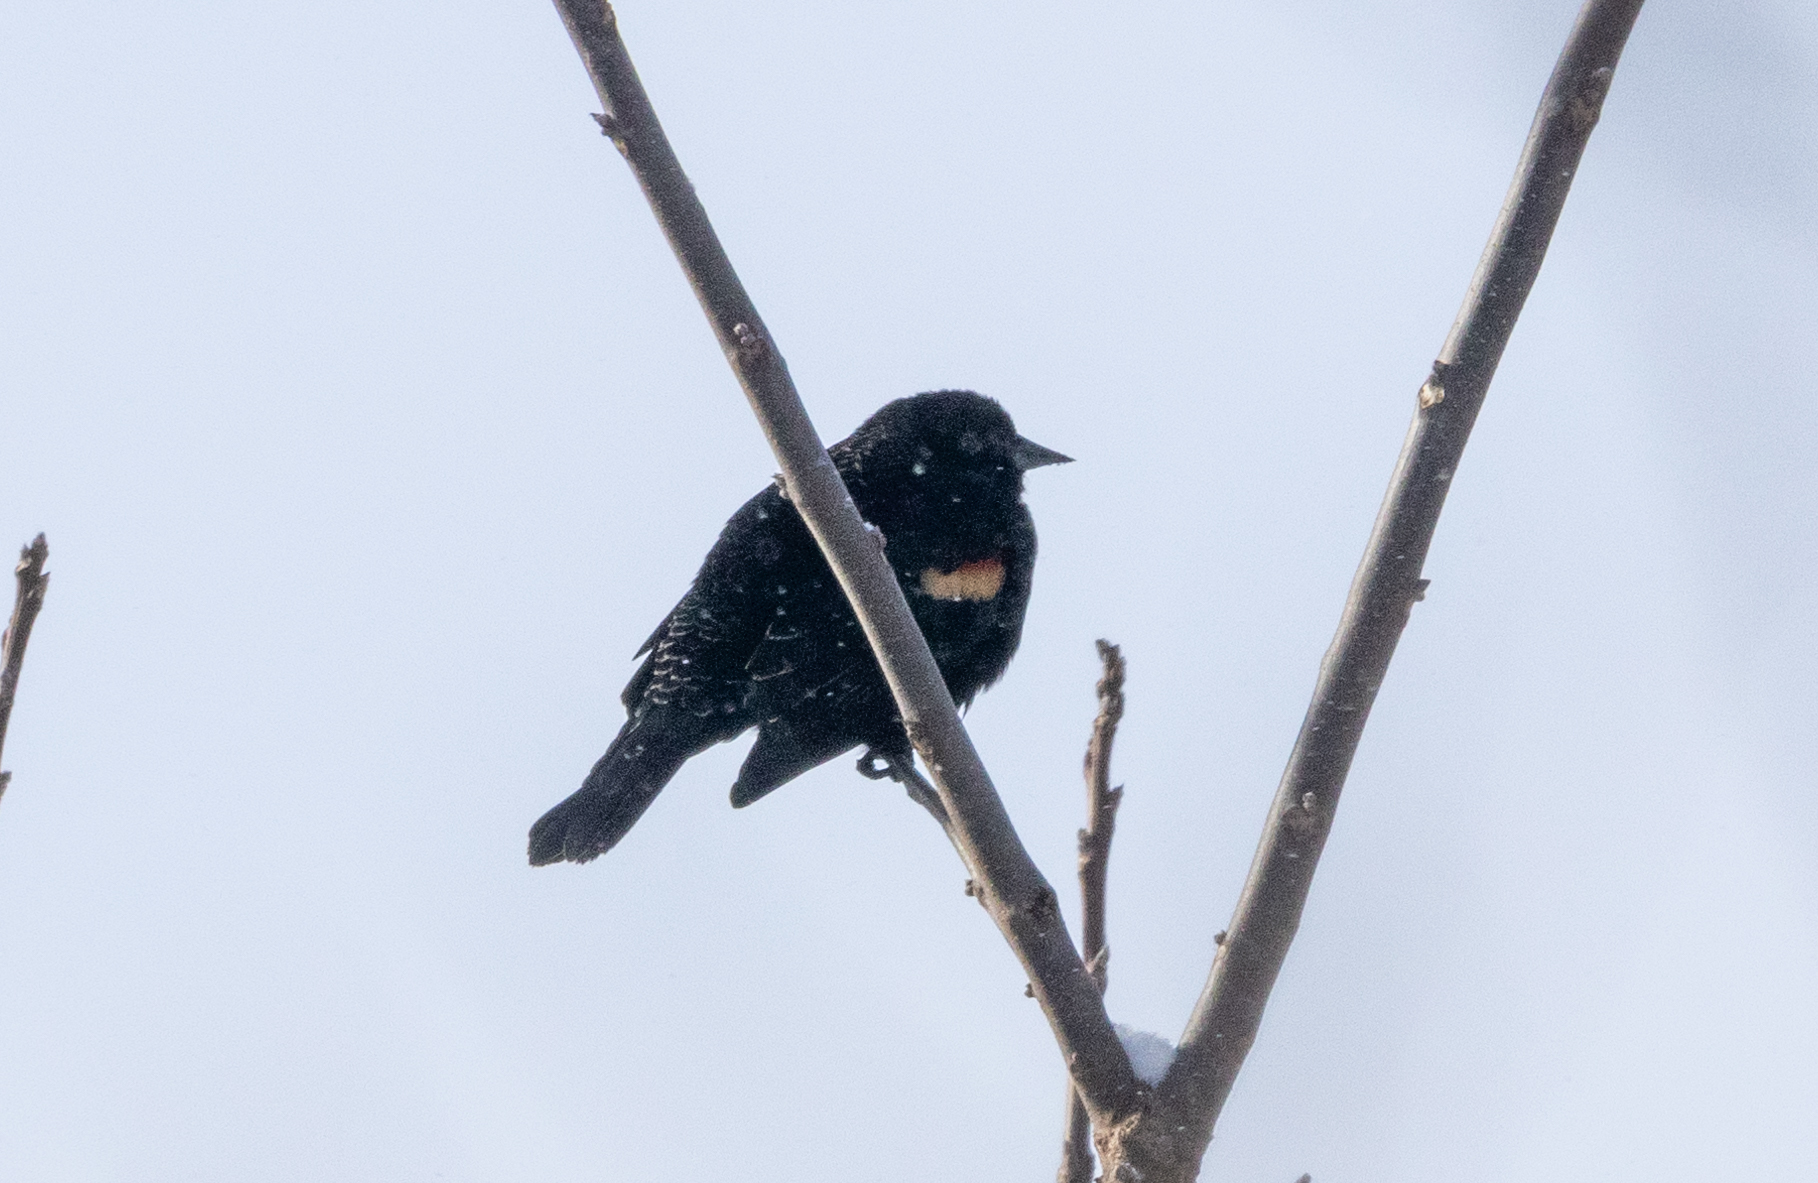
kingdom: Animalia
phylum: Chordata
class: Aves
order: Passeriformes
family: Icteridae
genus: Agelaius
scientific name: Agelaius phoeniceus
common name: Red-winged blackbird
